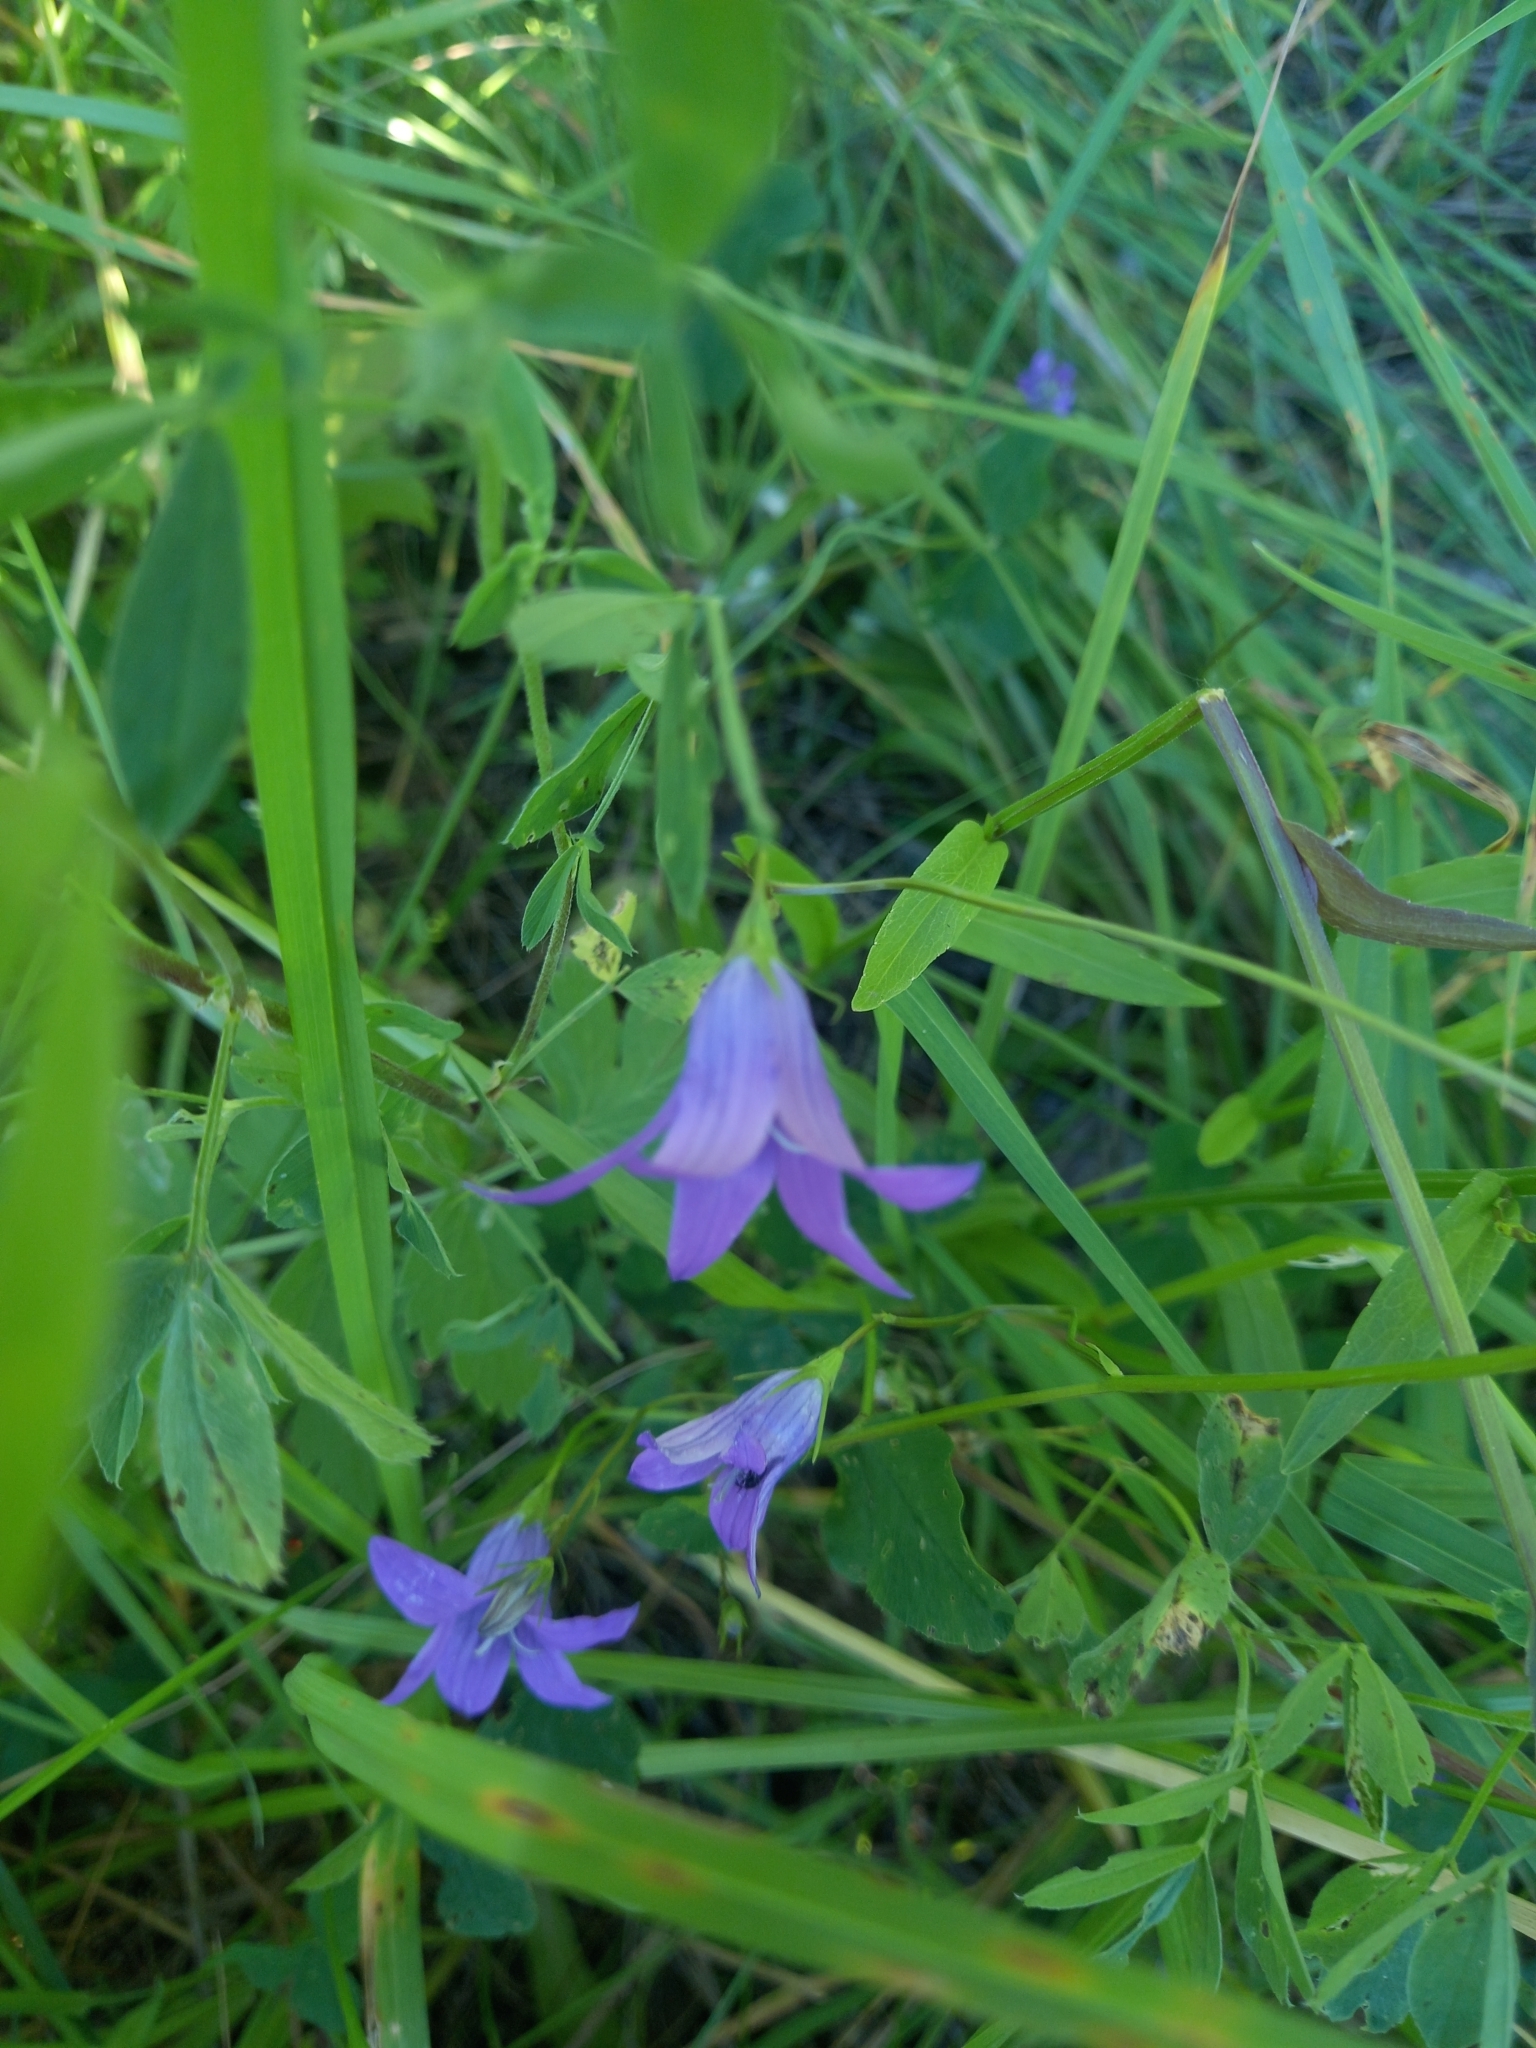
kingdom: Plantae
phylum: Tracheophyta
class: Magnoliopsida
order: Asterales
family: Campanulaceae
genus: Campanula
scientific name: Campanula patula
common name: Spreading bellflower
